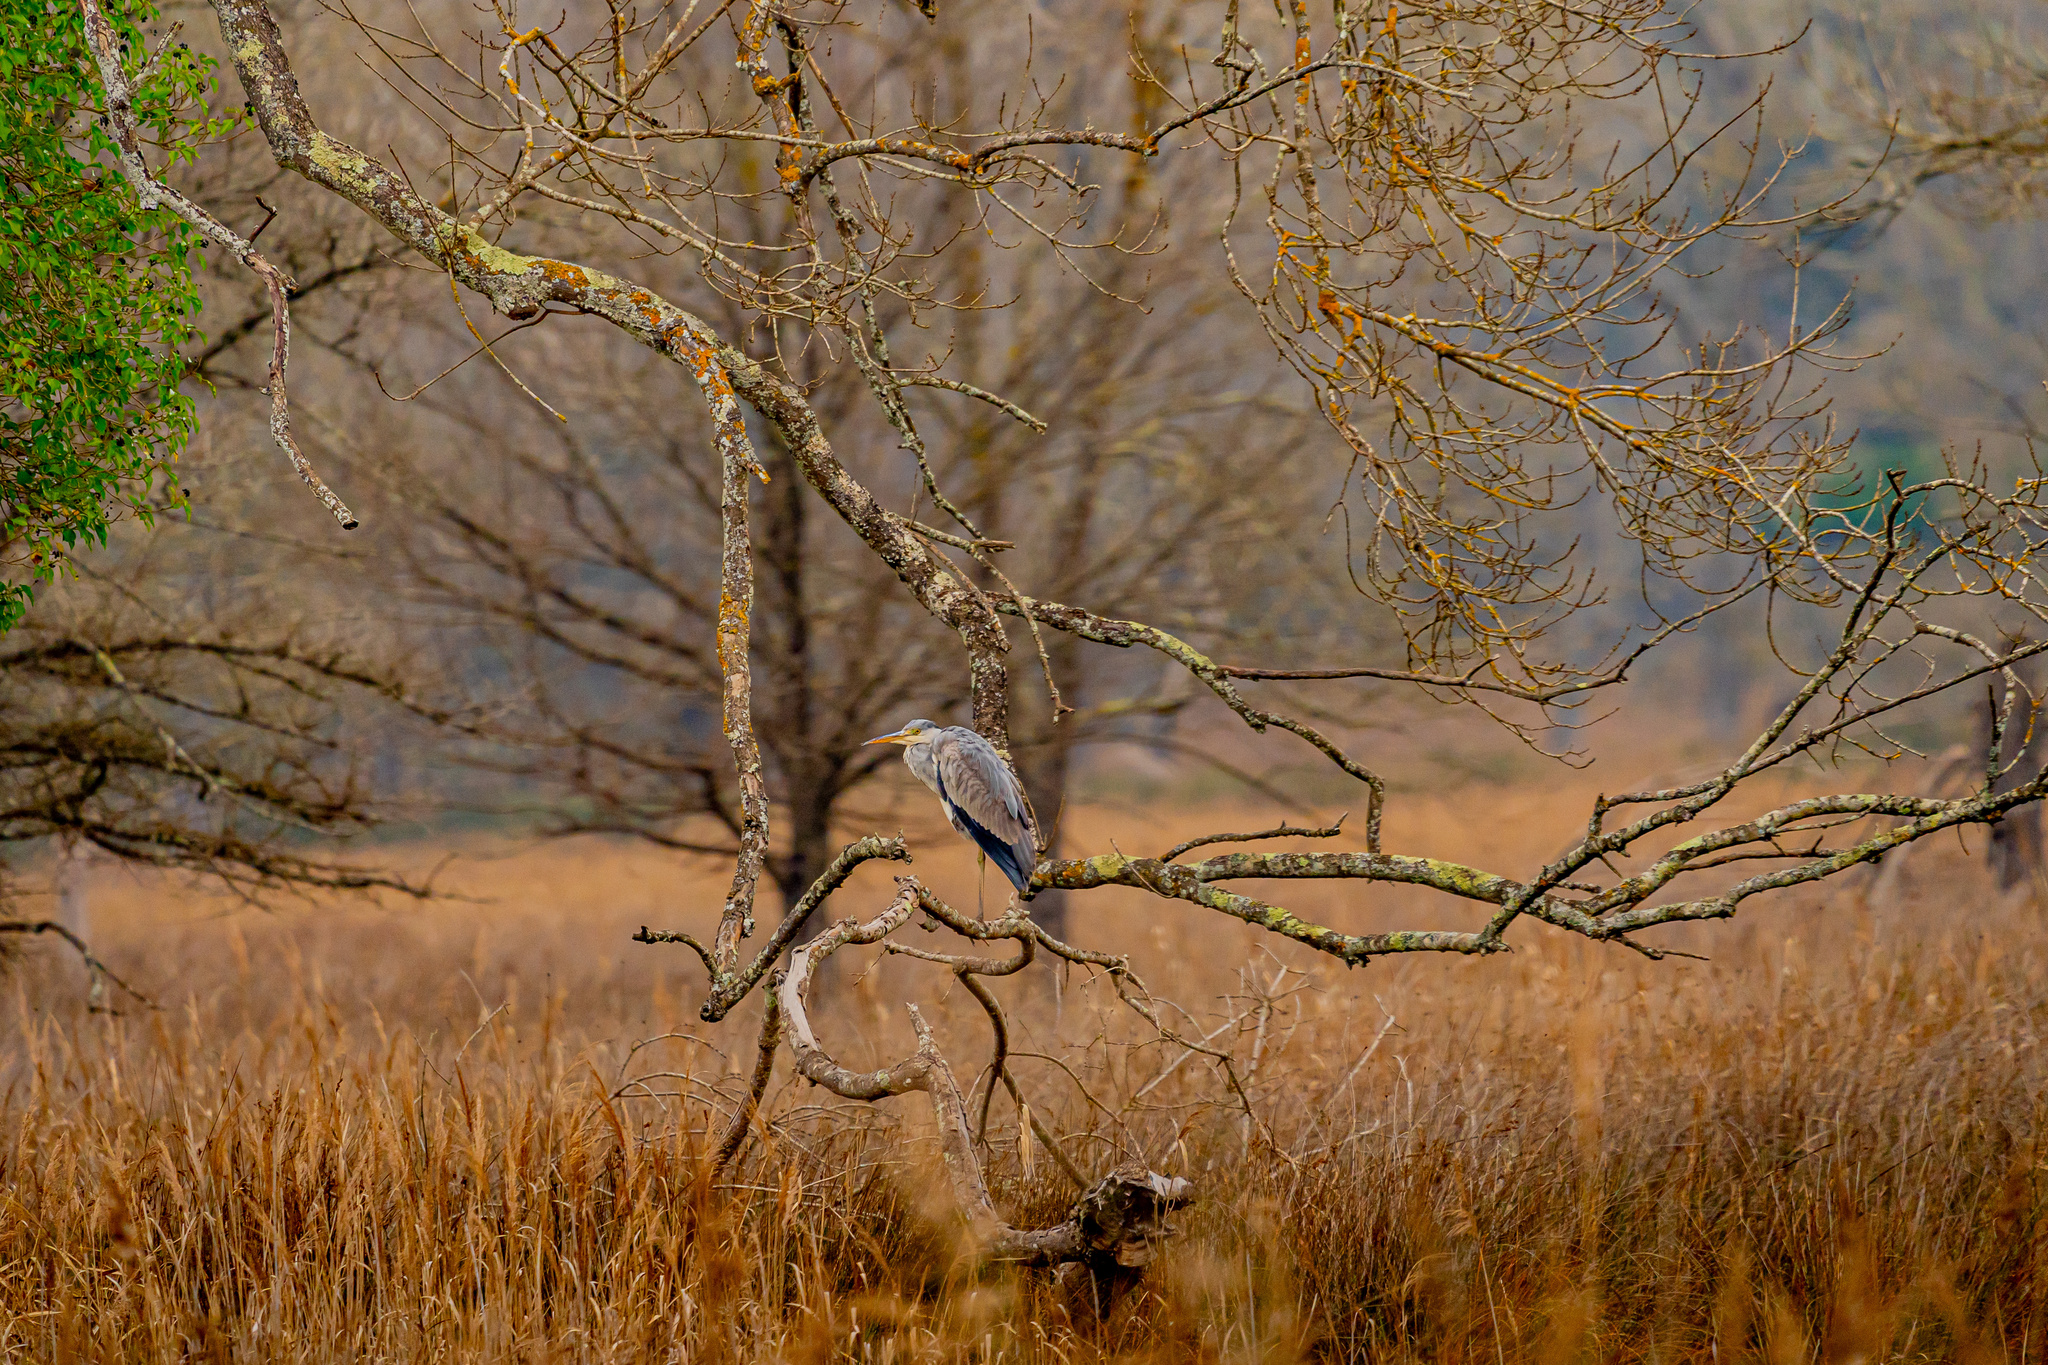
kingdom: Animalia
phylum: Chordata
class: Aves
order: Pelecaniformes
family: Ardeidae
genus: Ardea
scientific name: Ardea cinerea
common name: Grey heron
